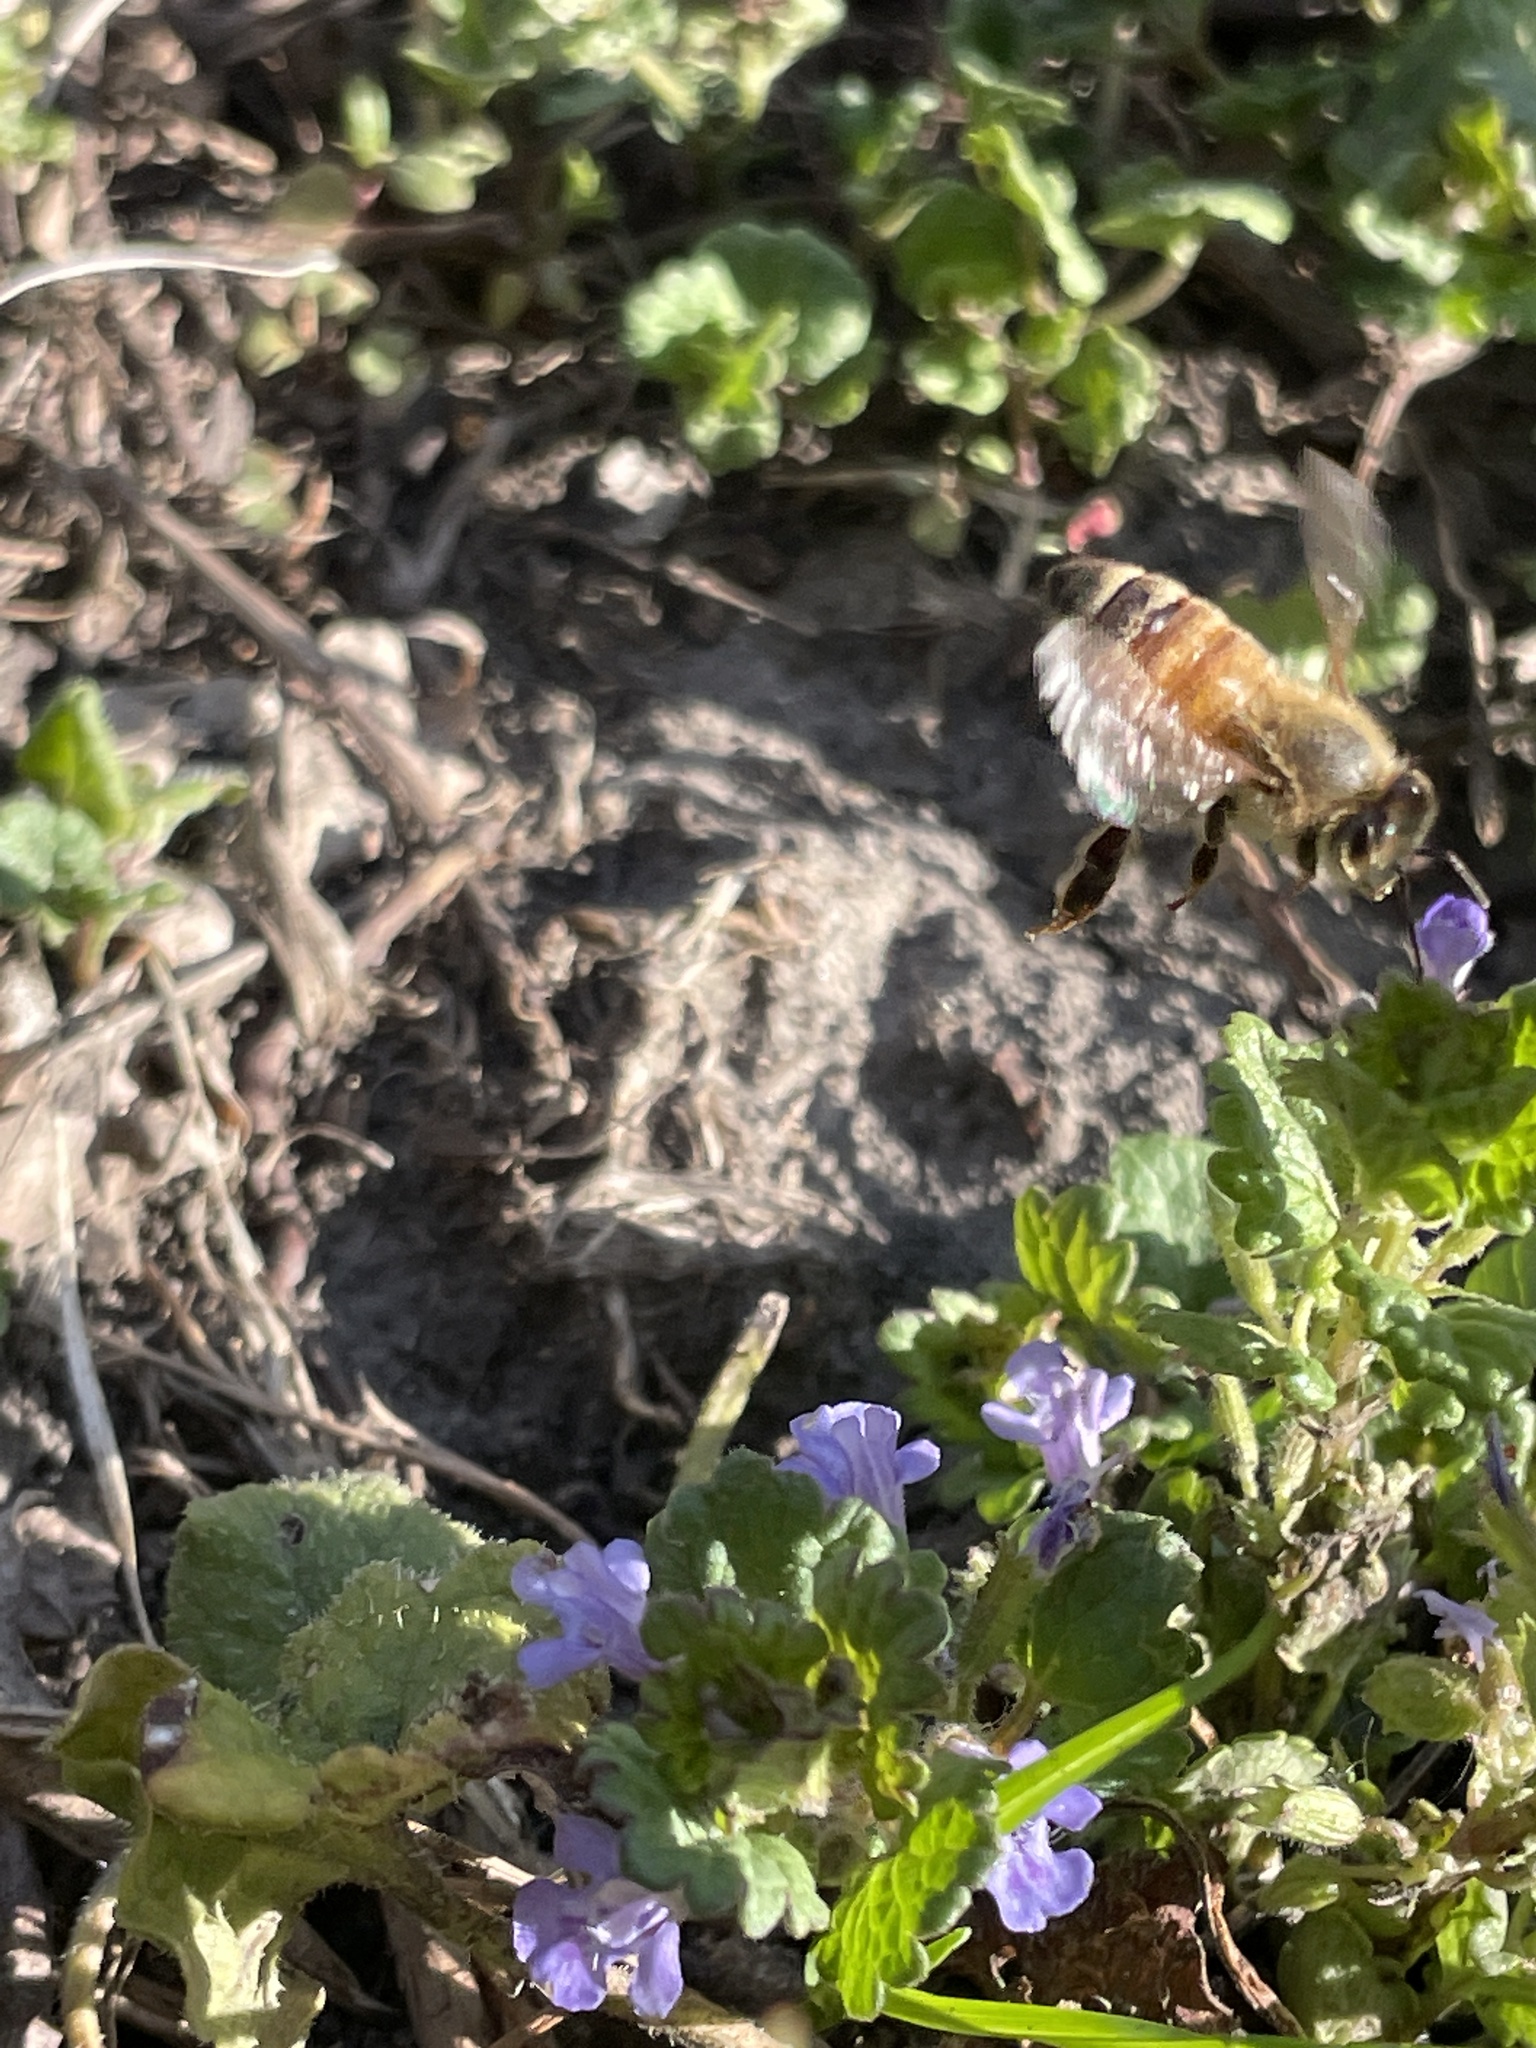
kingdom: Animalia
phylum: Arthropoda
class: Insecta
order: Hymenoptera
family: Apidae
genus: Apis
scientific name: Apis mellifera
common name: Honey bee
